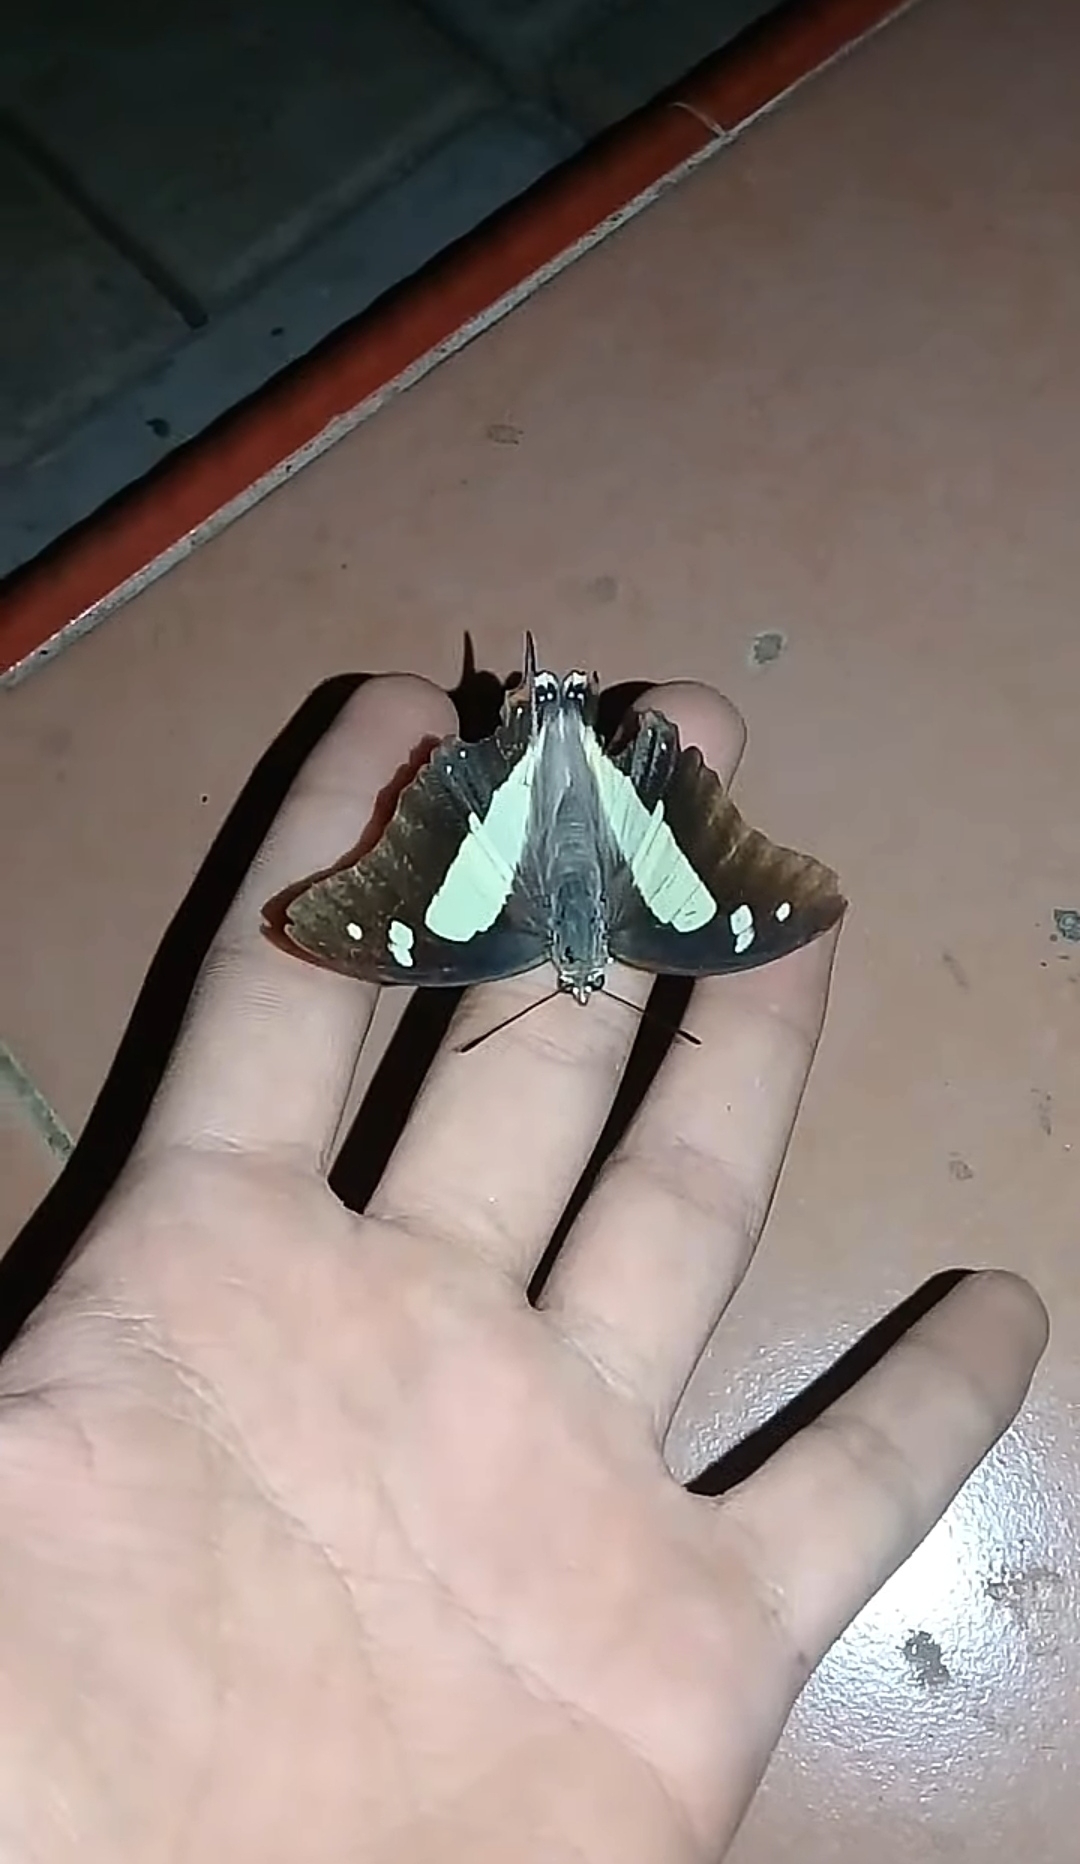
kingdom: Animalia
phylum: Arthropoda
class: Insecta
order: Lepidoptera
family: Nymphalidae
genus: Polyura
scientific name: Polyura
